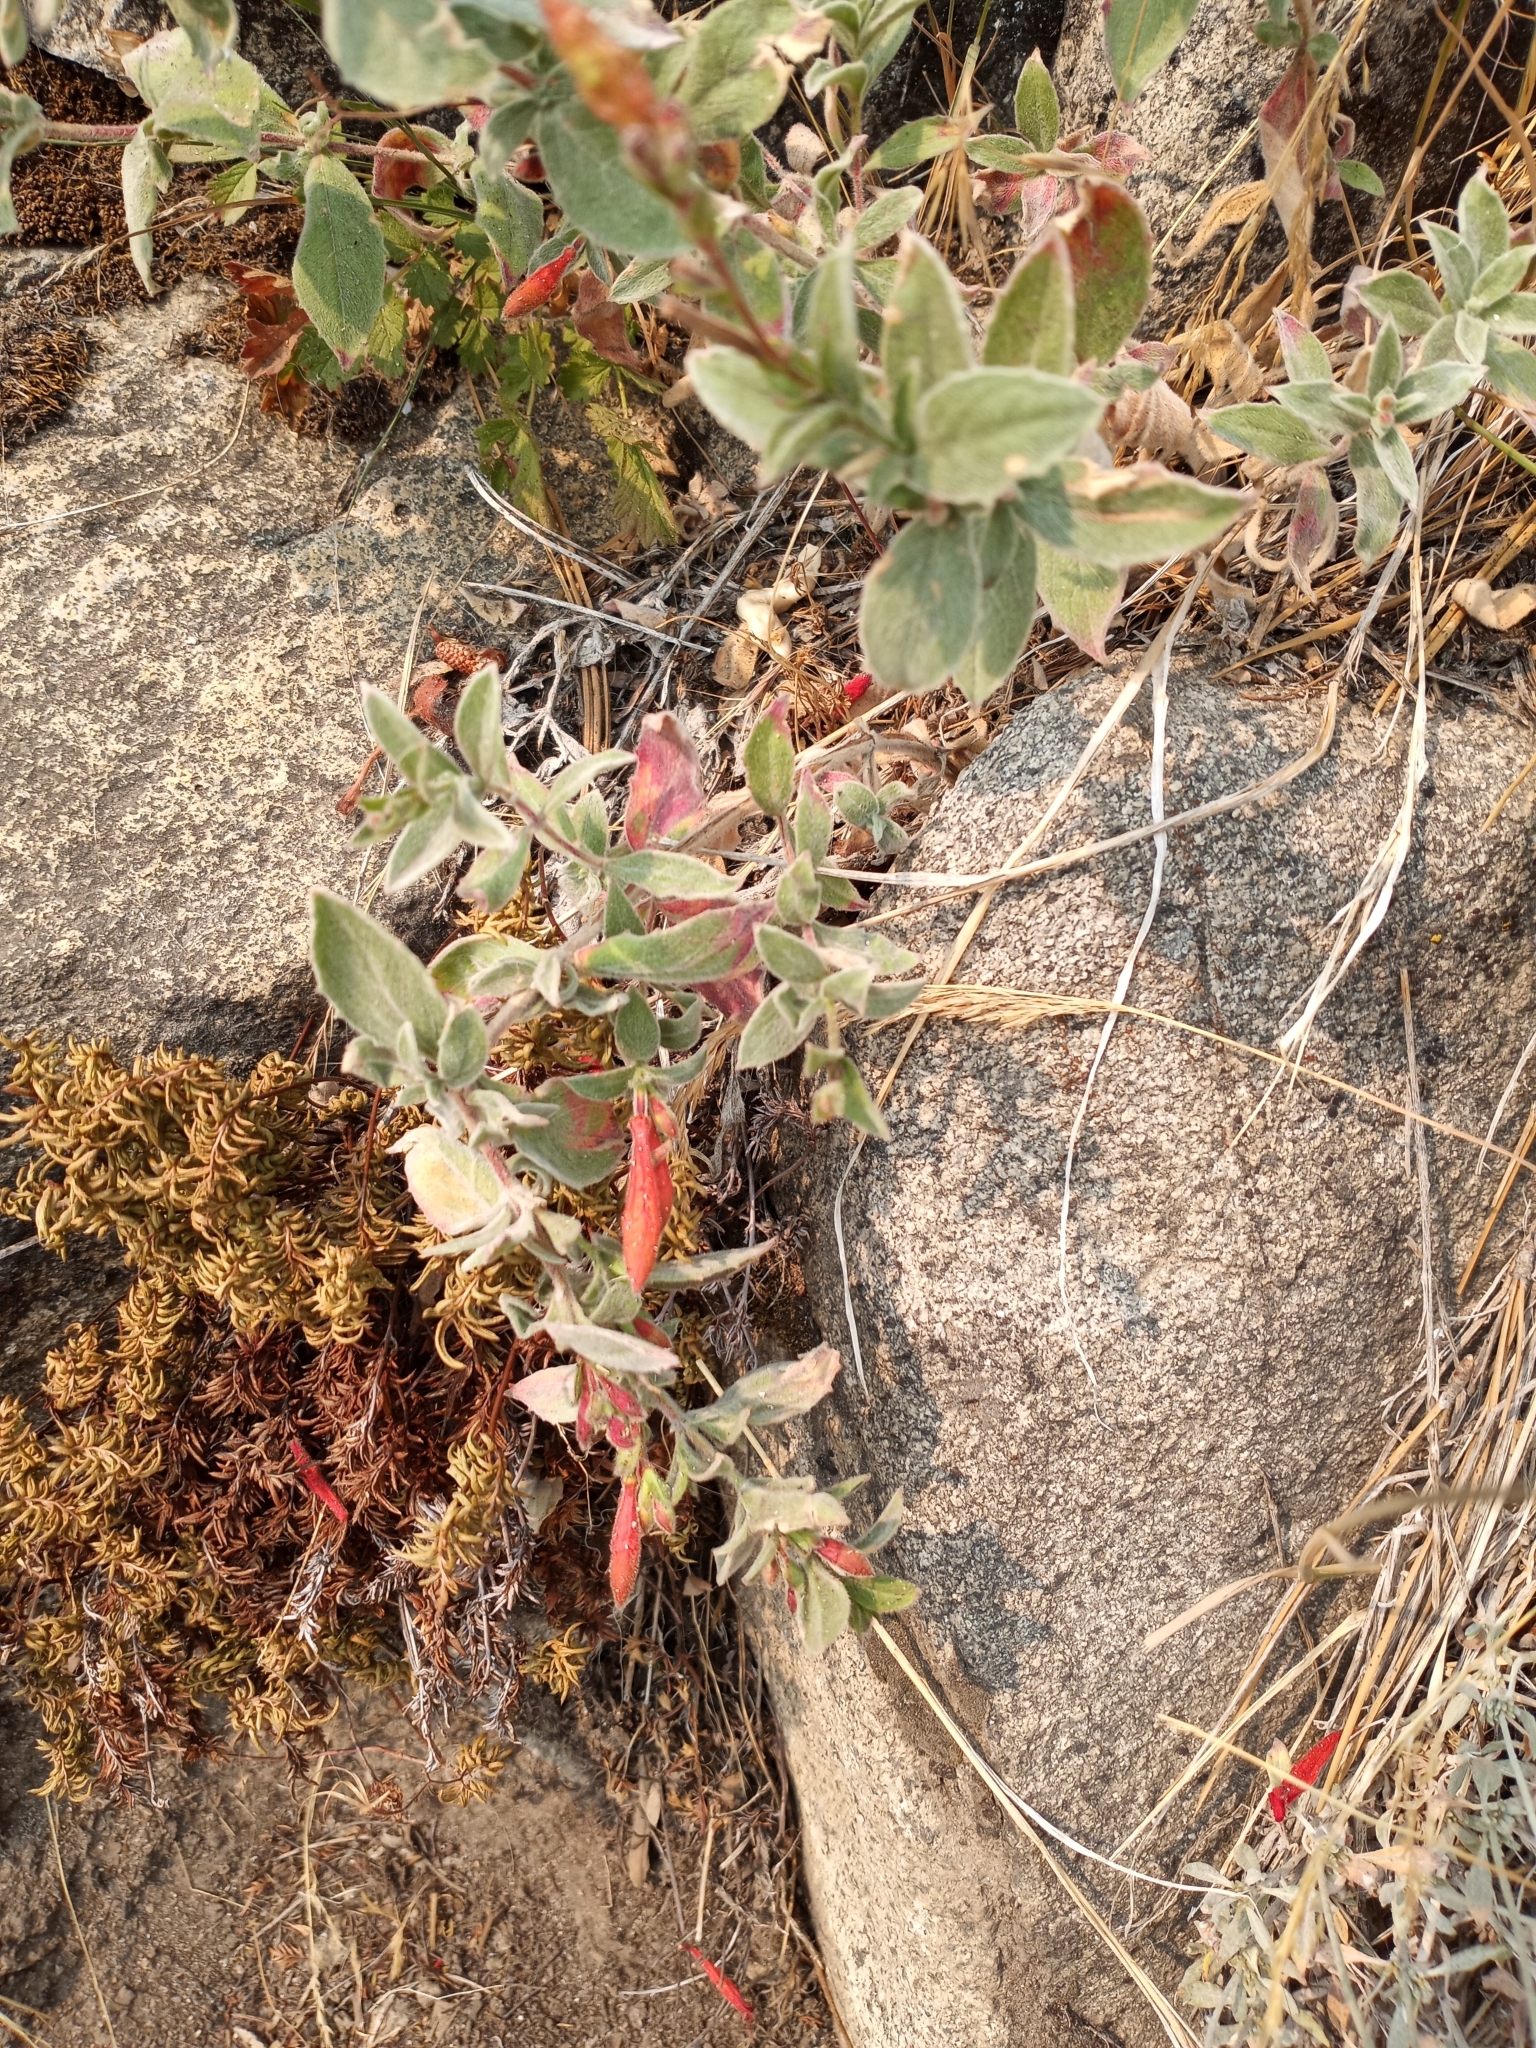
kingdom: Plantae
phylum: Tracheophyta
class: Magnoliopsida
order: Myrtales
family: Onagraceae
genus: Epilobium
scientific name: Epilobium canum
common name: California-fuchsia
